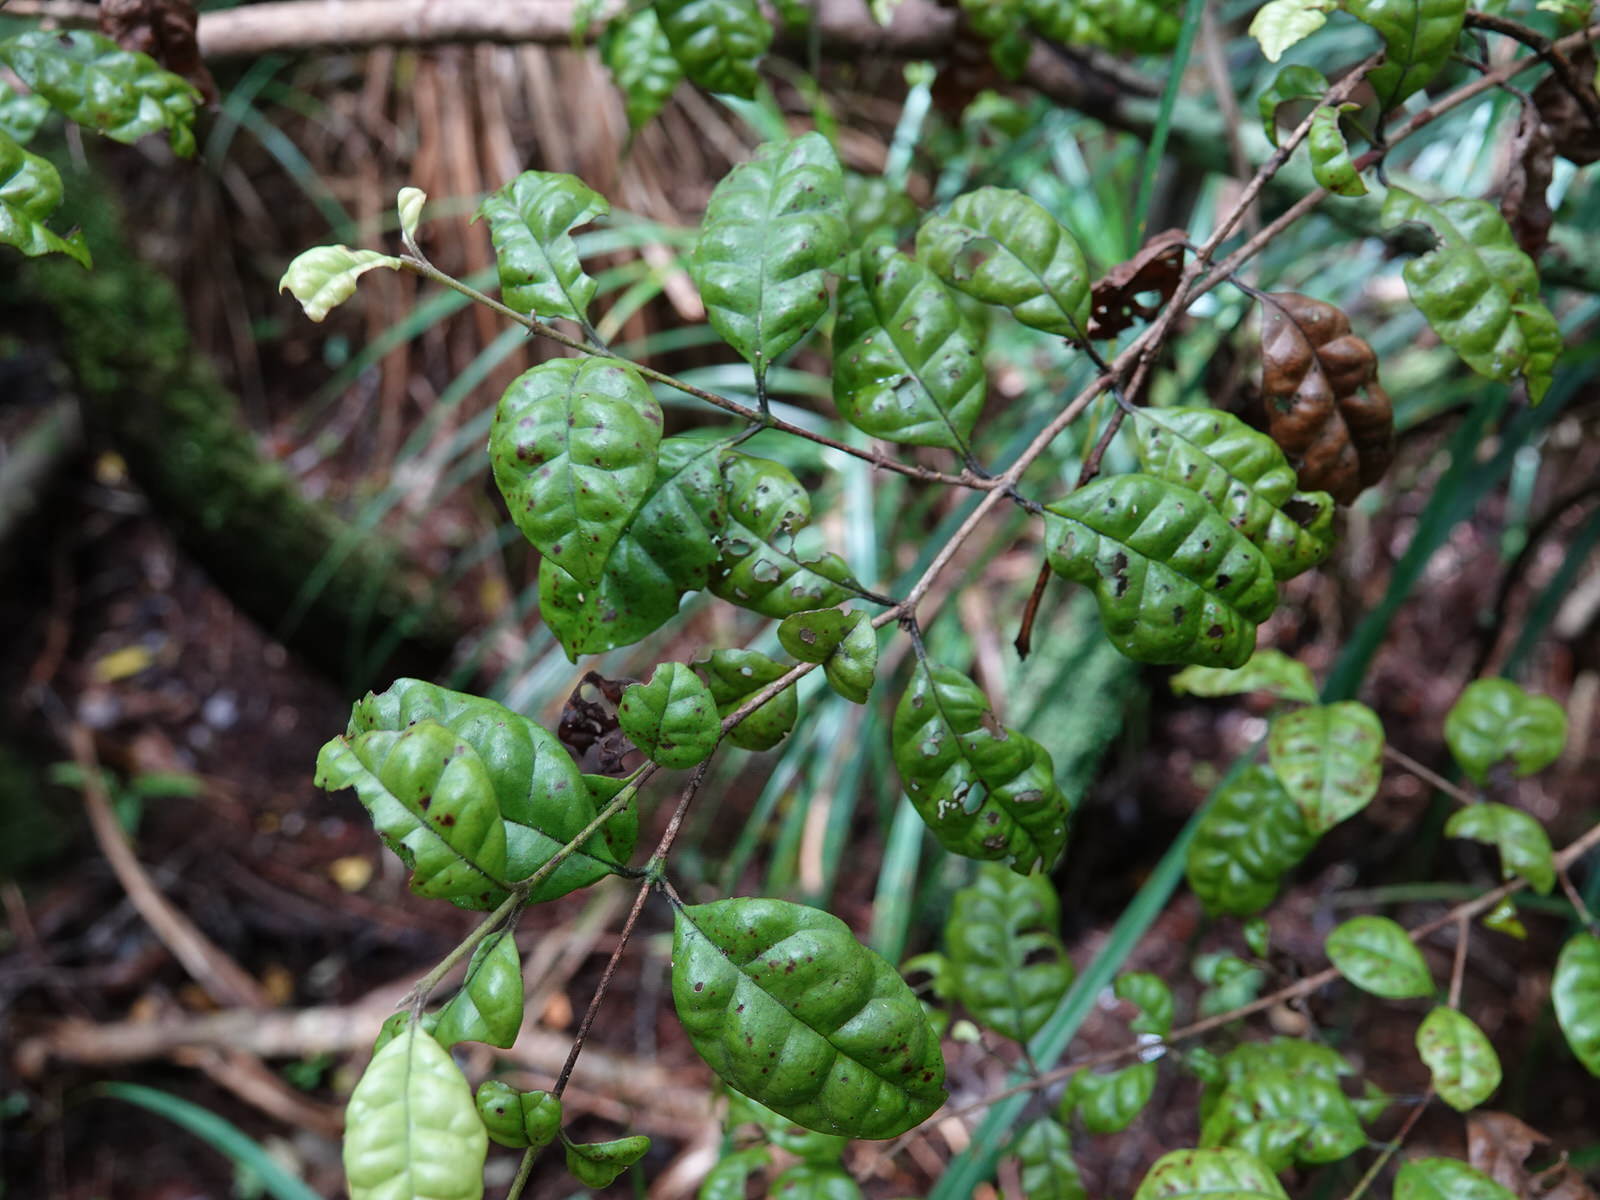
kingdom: Plantae
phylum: Tracheophyta
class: Magnoliopsida
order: Myrtales
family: Myrtaceae
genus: Lophomyrtus
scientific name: Lophomyrtus bullata
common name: Rama rama
